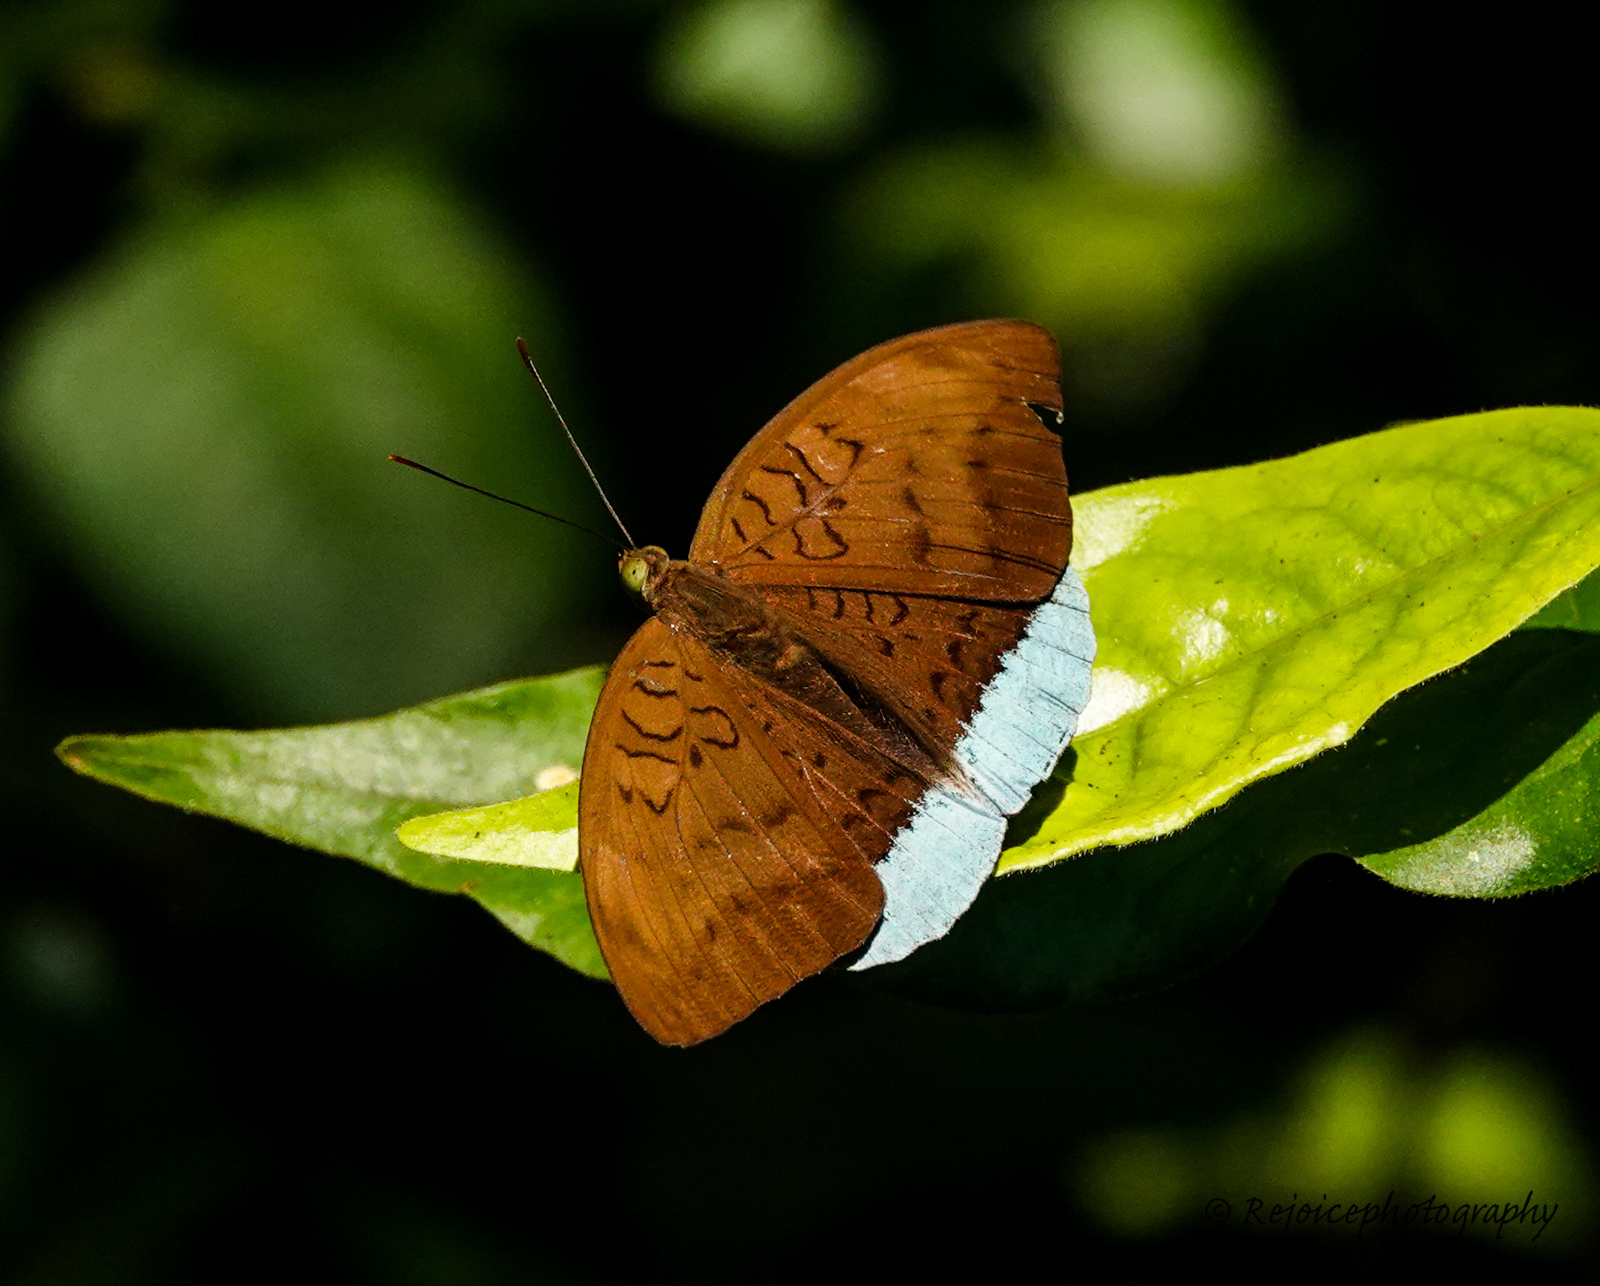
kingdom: Animalia
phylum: Arthropoda
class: Insecta
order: Lepidoptera
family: Nymphalidae
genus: Tanaecia
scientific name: Tanaecia julii
